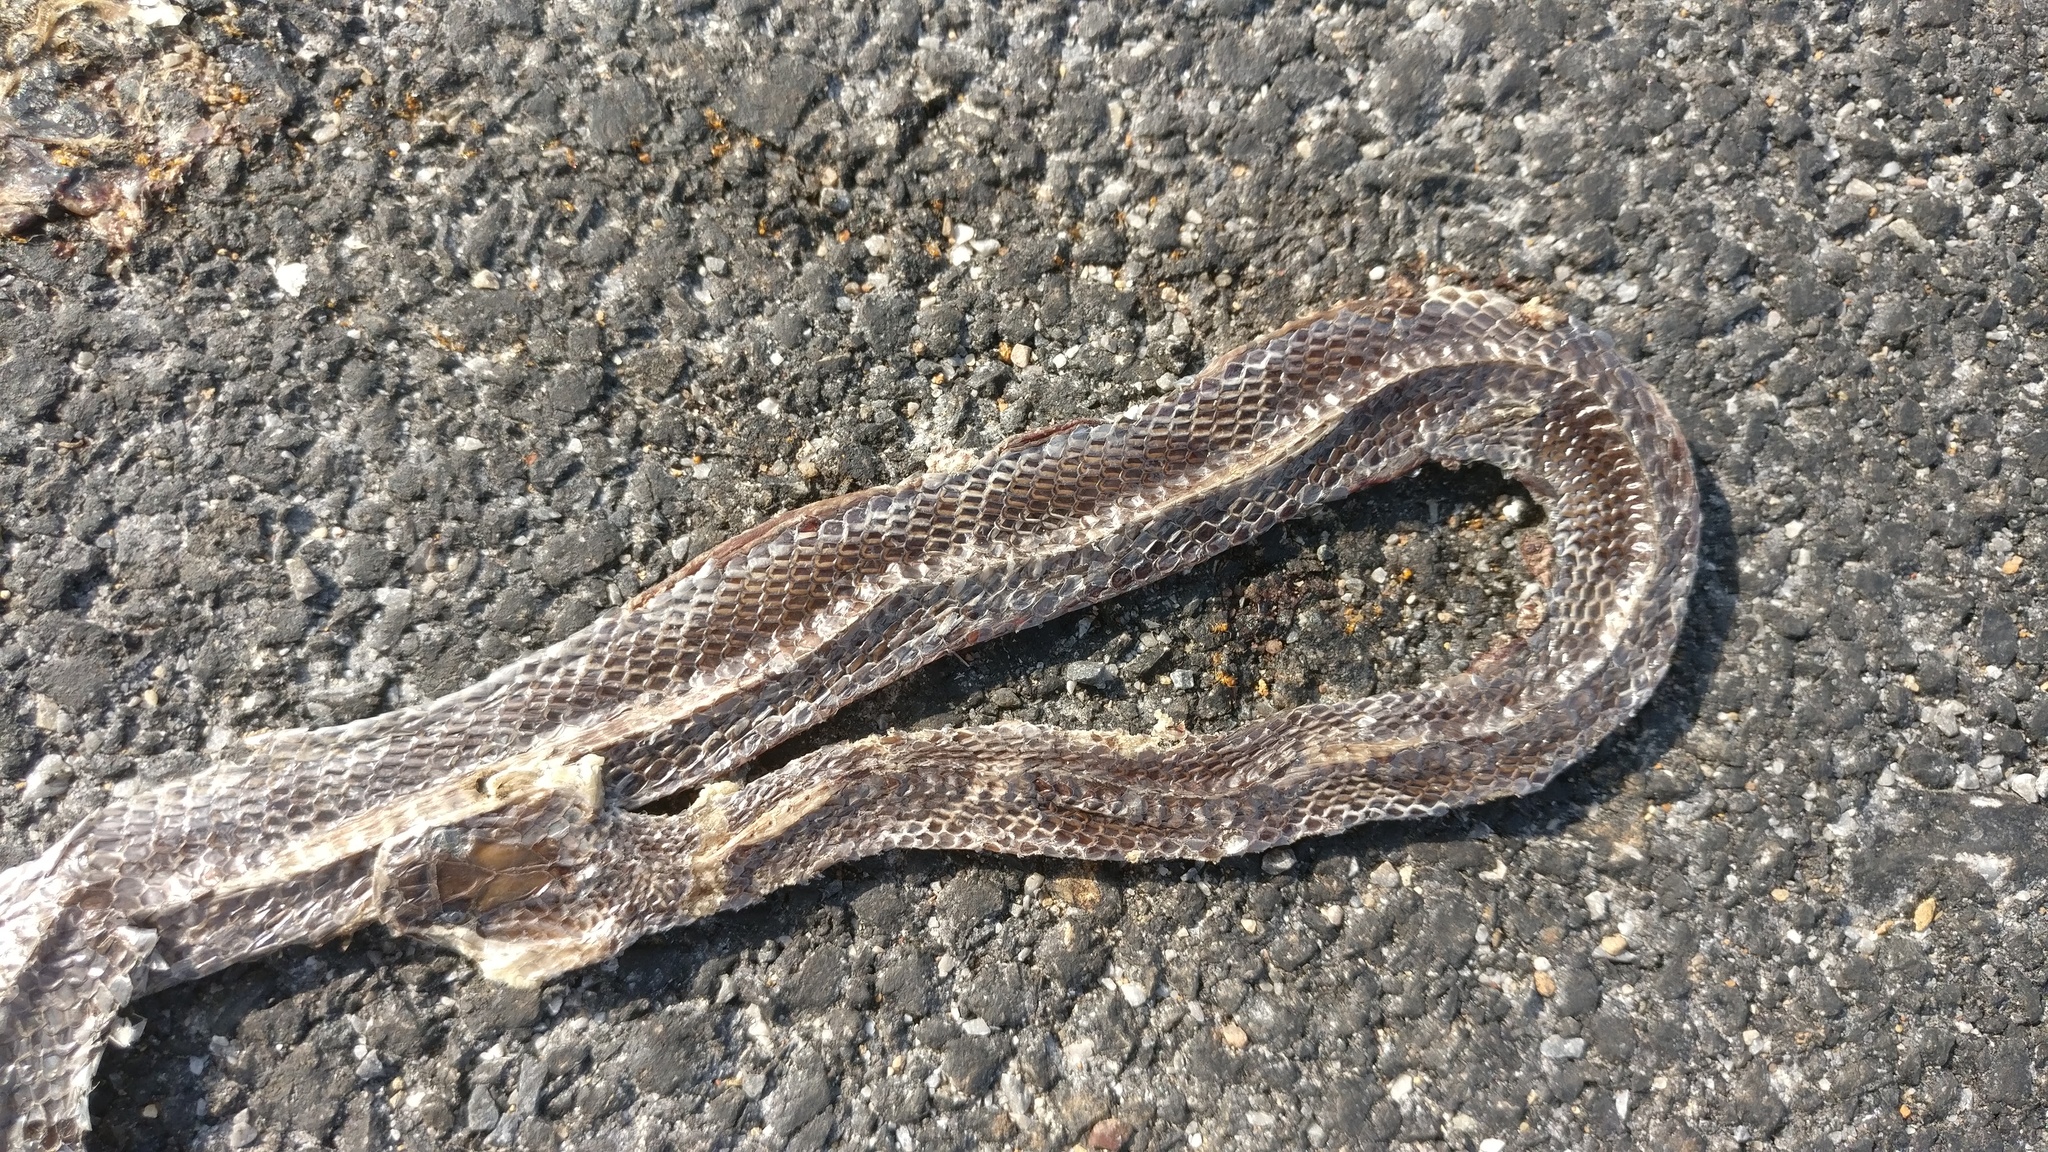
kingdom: Animalia
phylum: Chordata
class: Squamata
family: Colubridae
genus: Lycodon
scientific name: Lycodon aulicus
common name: Common wolf snake
